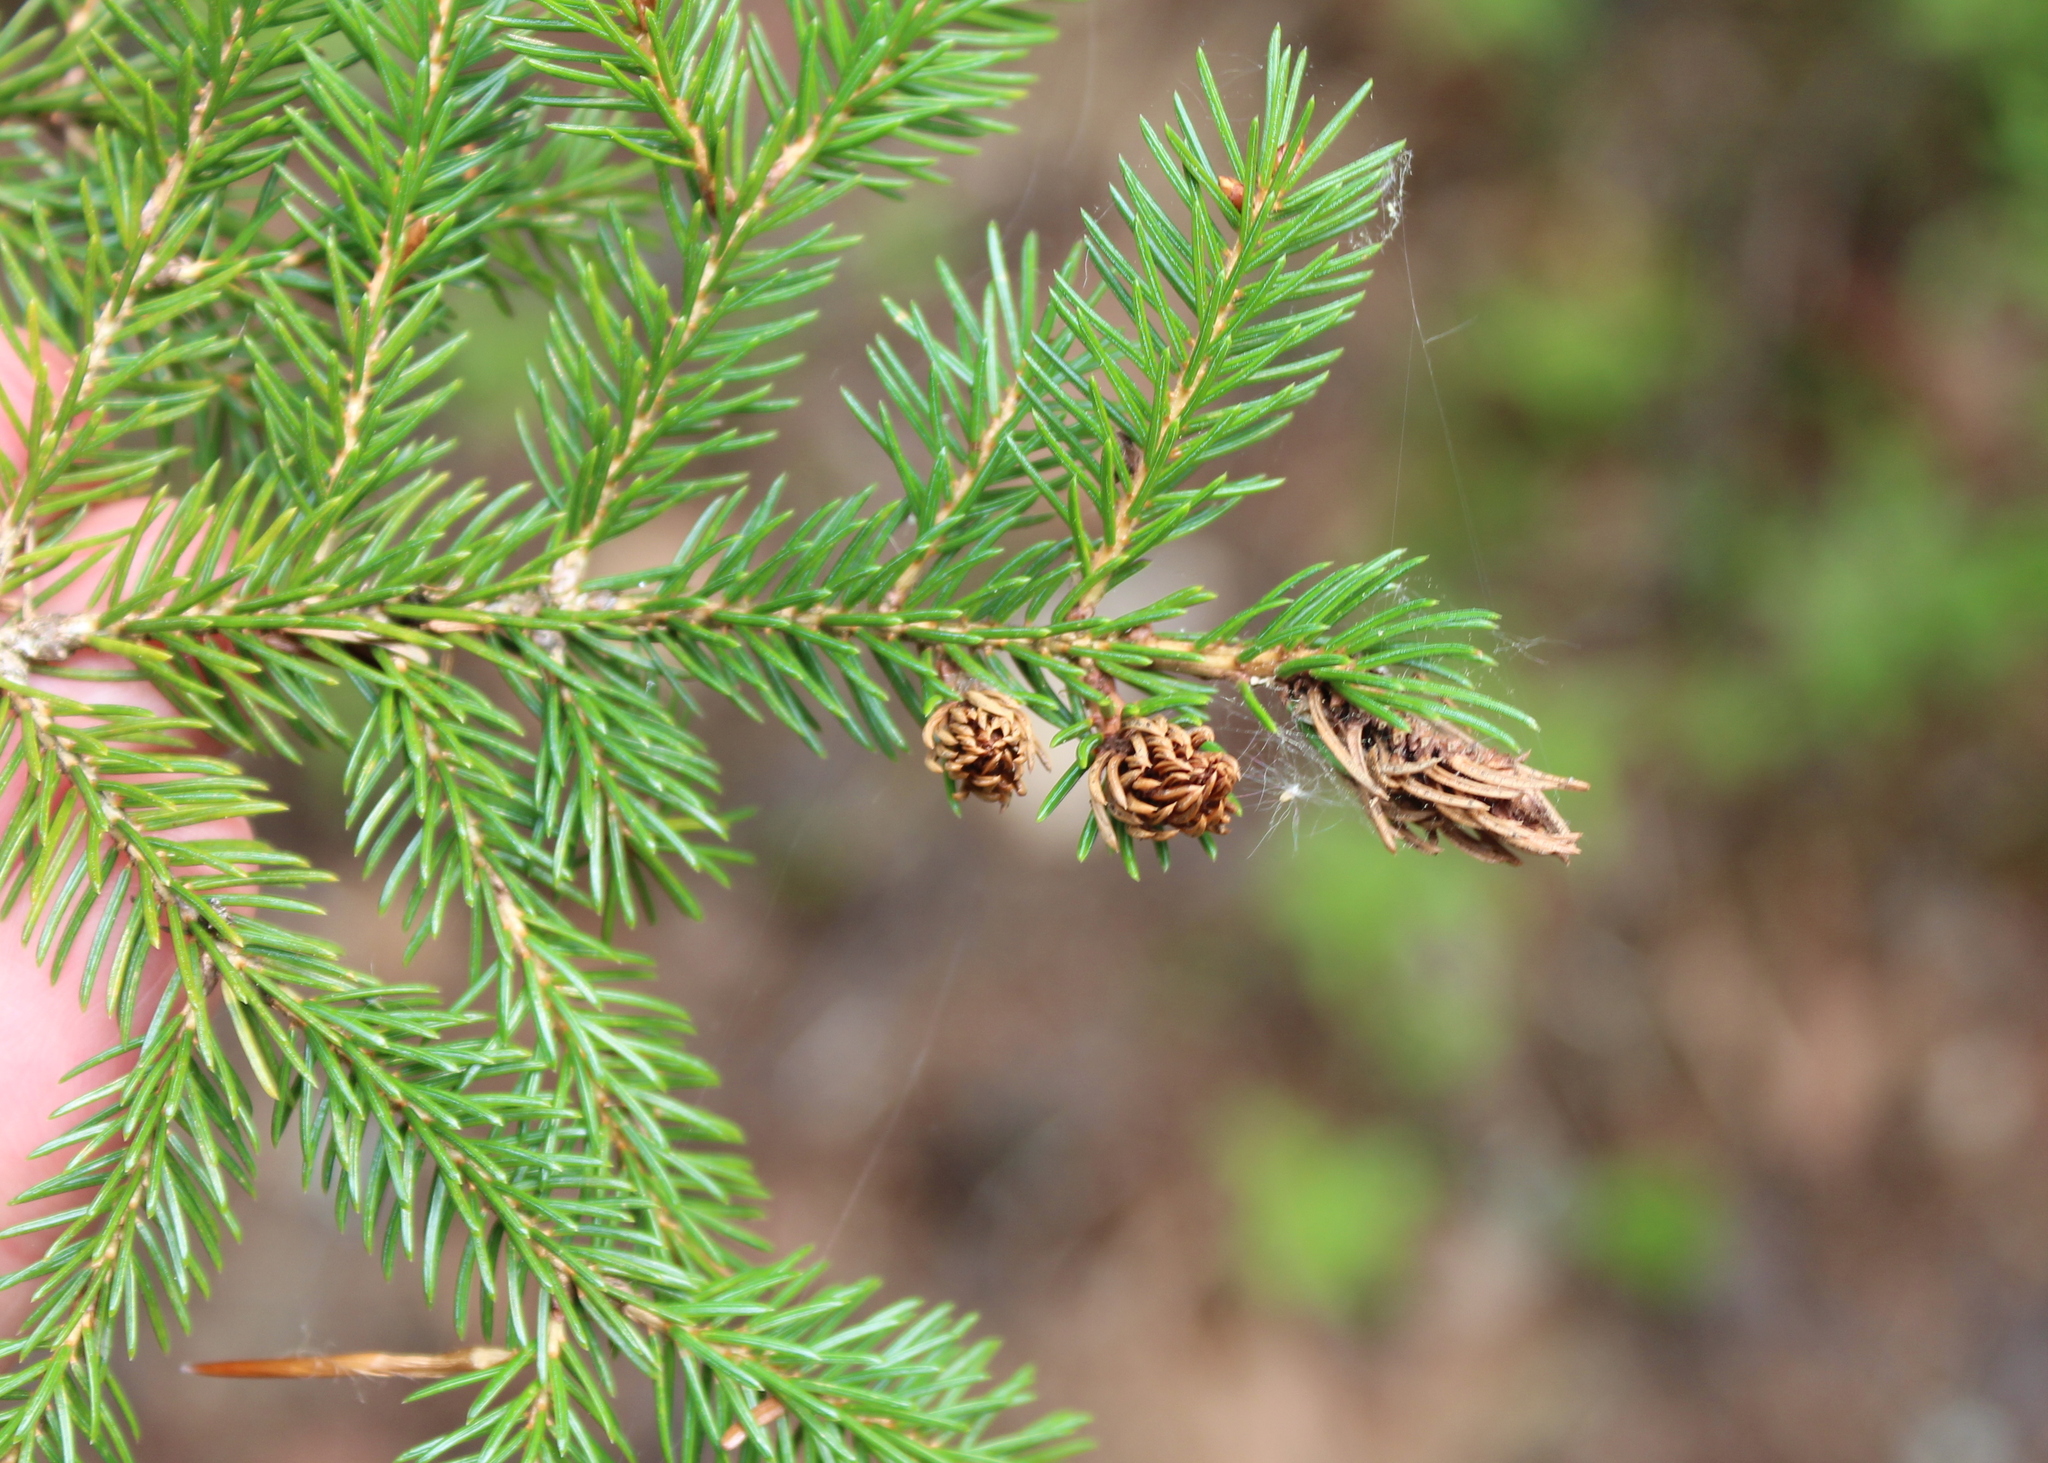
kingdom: Animalia
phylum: Arthropoda
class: Insecta
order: Hemiptera
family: Adelgidae
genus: Adelges
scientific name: Adelges abietis
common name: Eastern spruce gall adelgid
